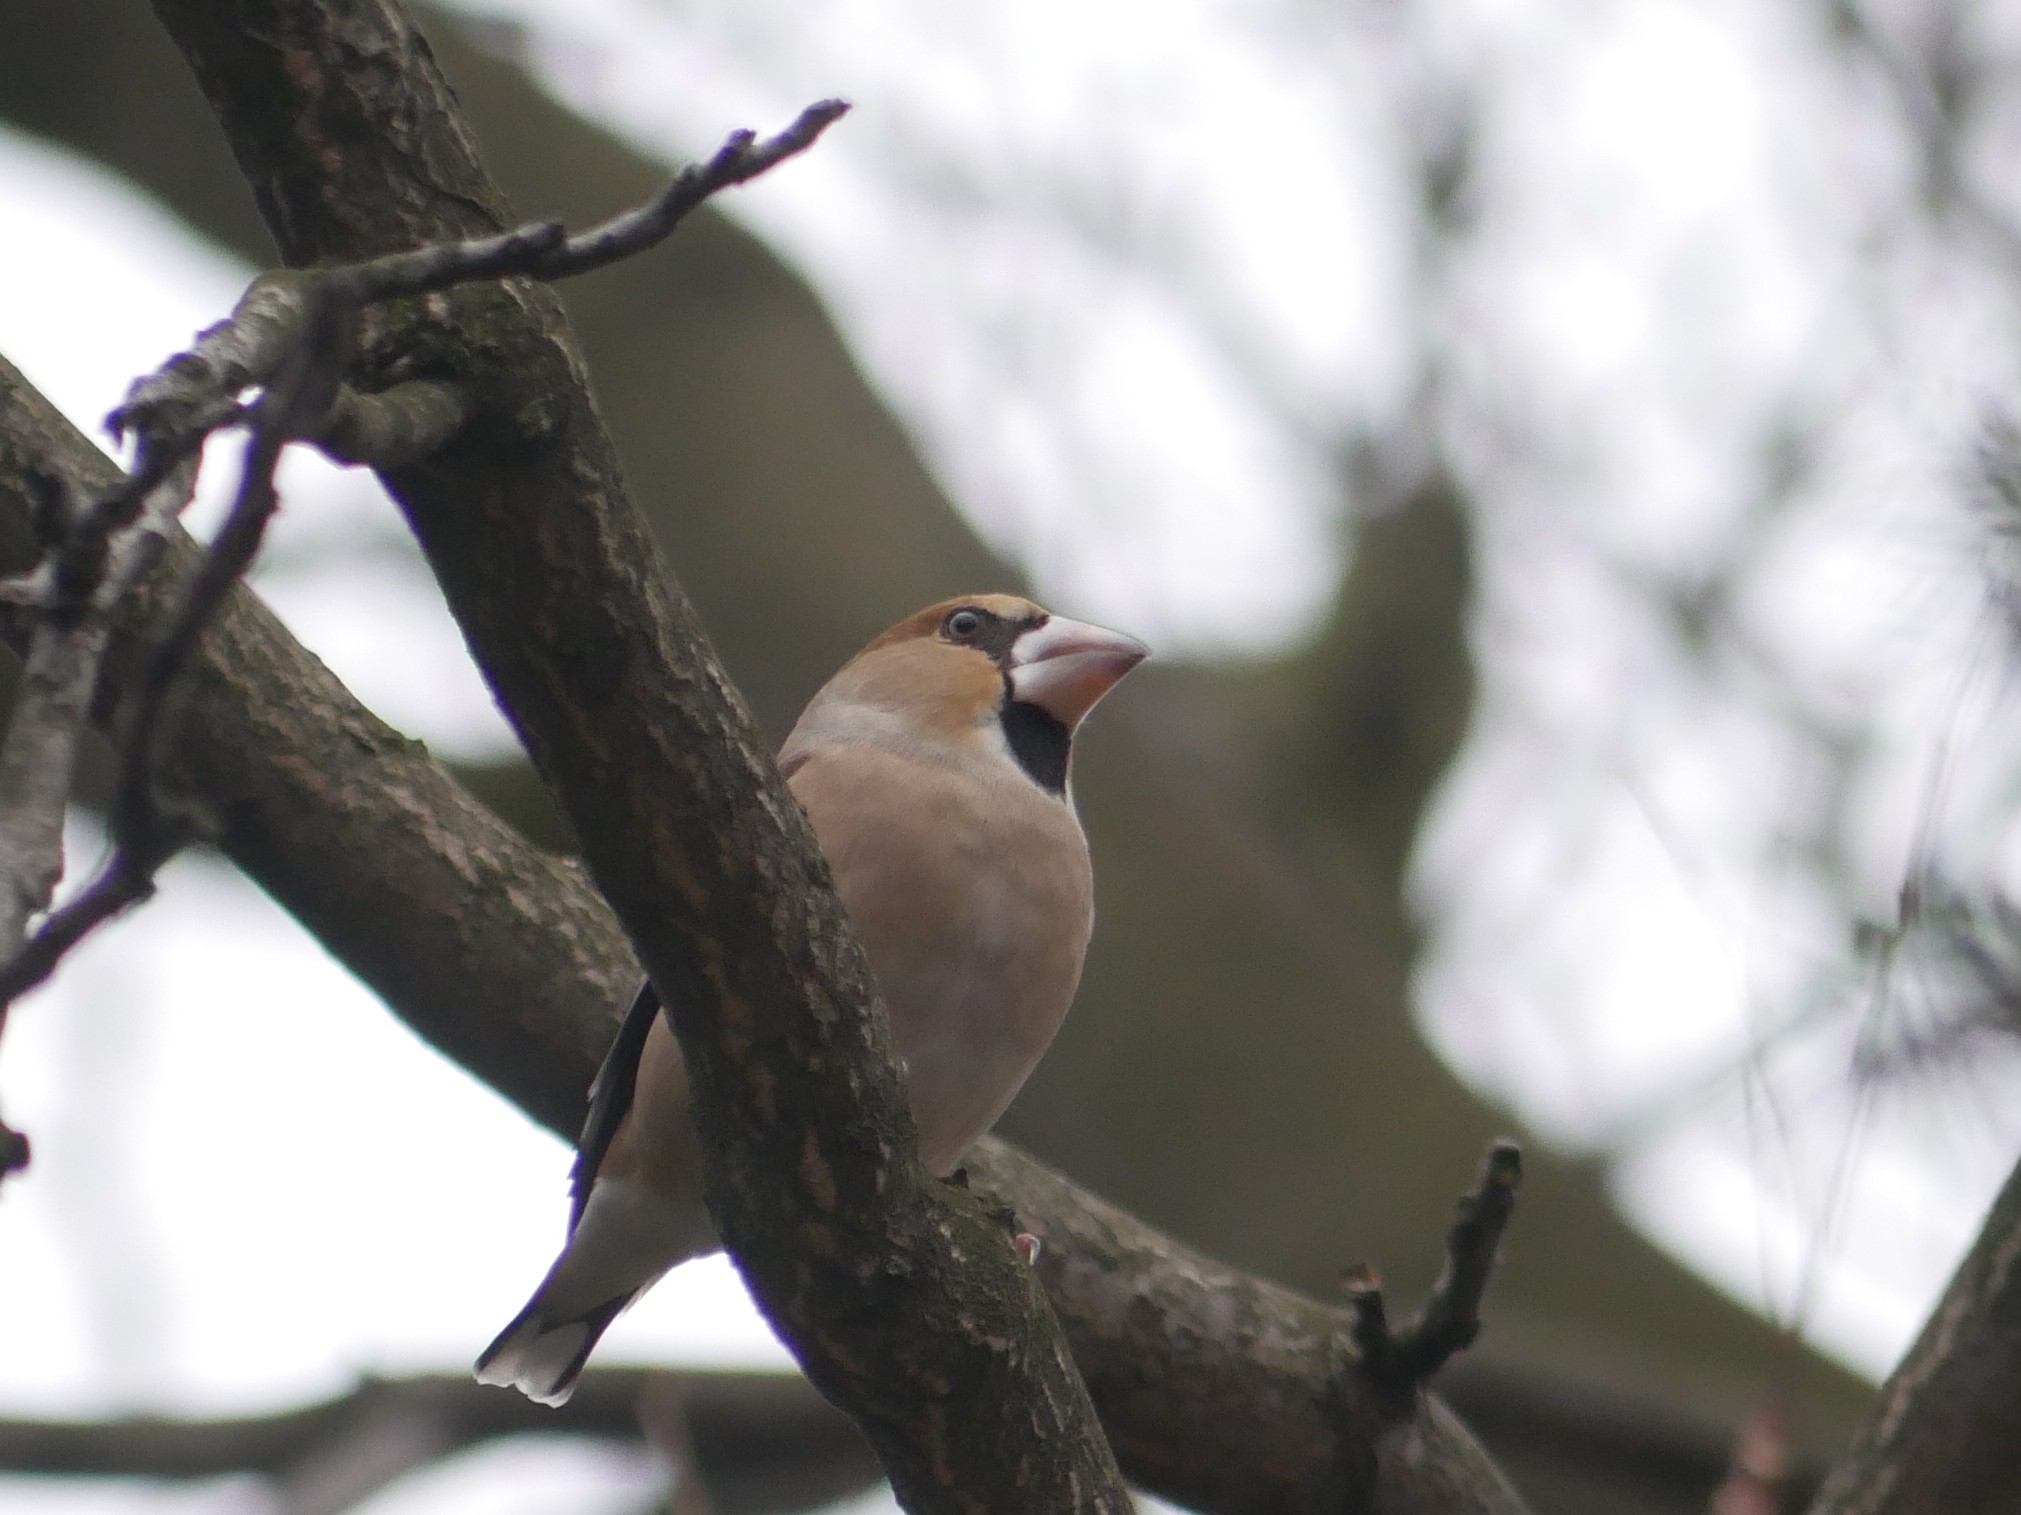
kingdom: Animalia
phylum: Chordata
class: Aves
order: Passeriformes
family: Fringillidae
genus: Coccothraustes
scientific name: Coccothraustes coccothraustes
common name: Hawfinch
